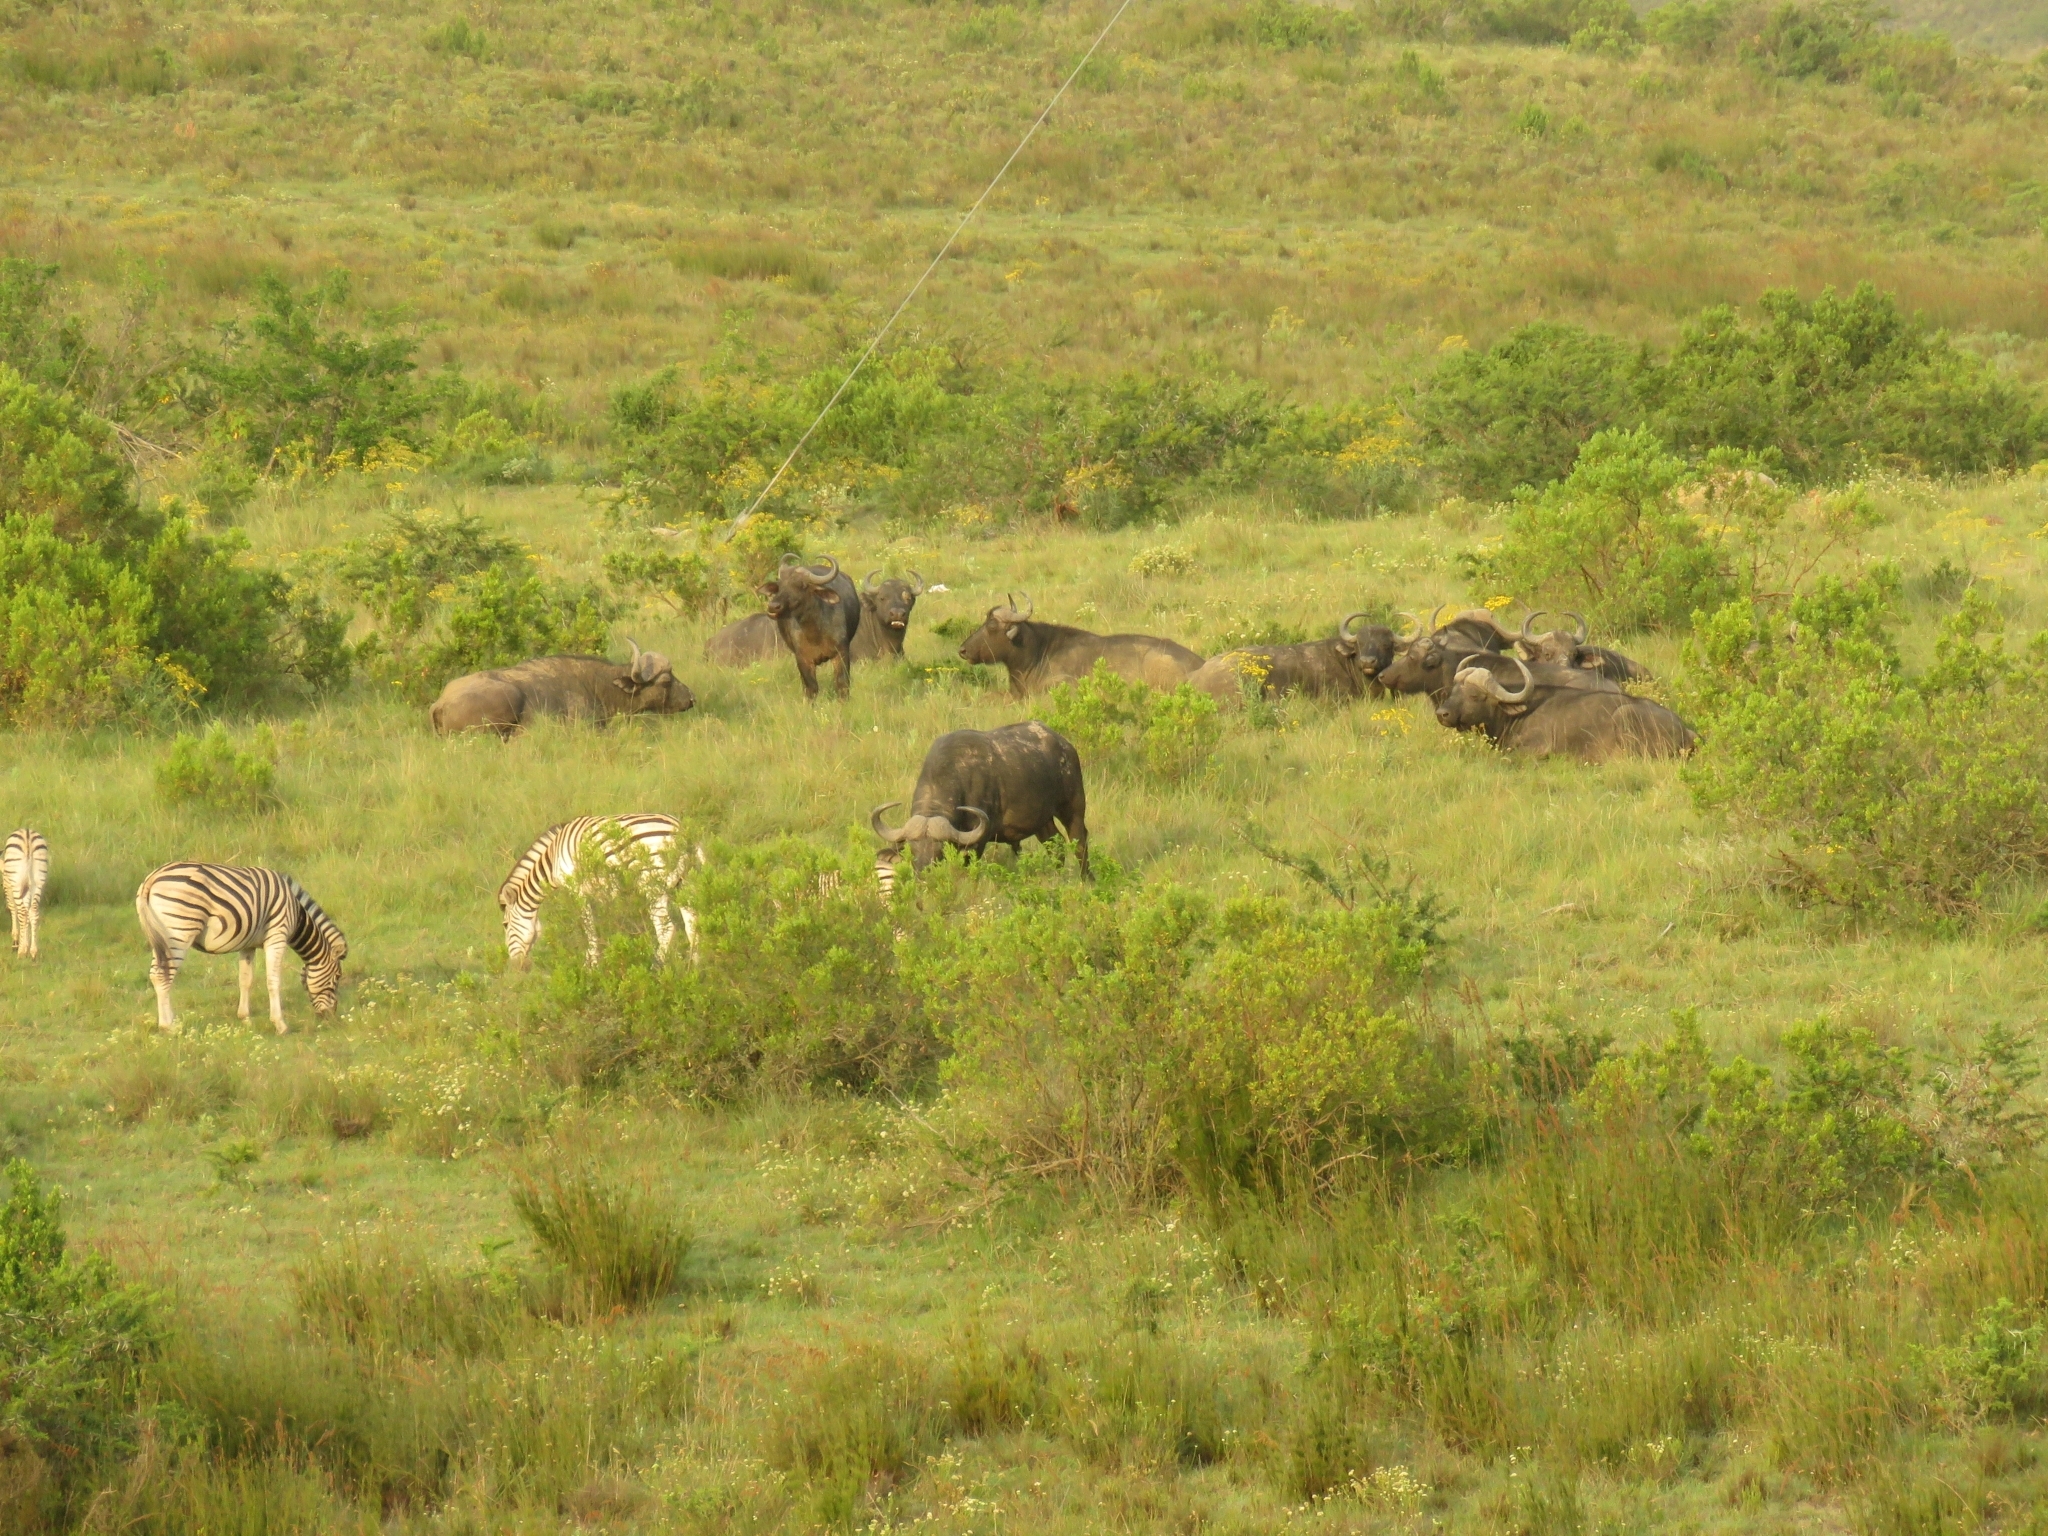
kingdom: Animalia
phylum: Chordata
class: Mammalia
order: Artiodactyla
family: Bovidae
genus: Syncerus
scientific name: Syncerus caffer
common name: African buffalo
